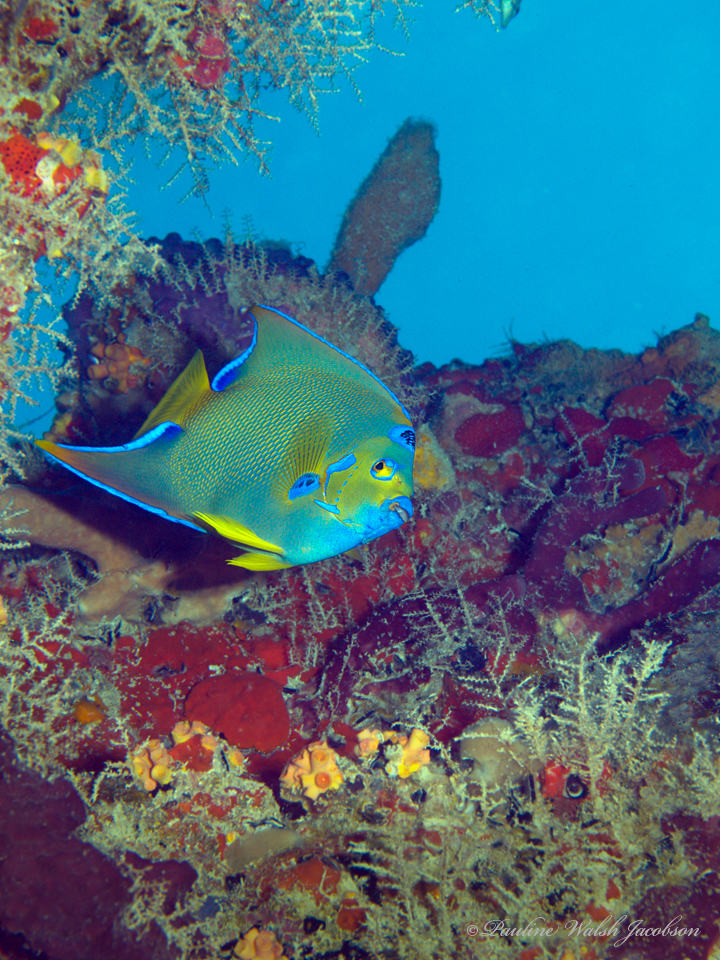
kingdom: Animalia
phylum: Chordata
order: Perciformes
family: Pomacanthidae
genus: Holacanthus
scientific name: Holacanthus ciliaris
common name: Queen angelfish
